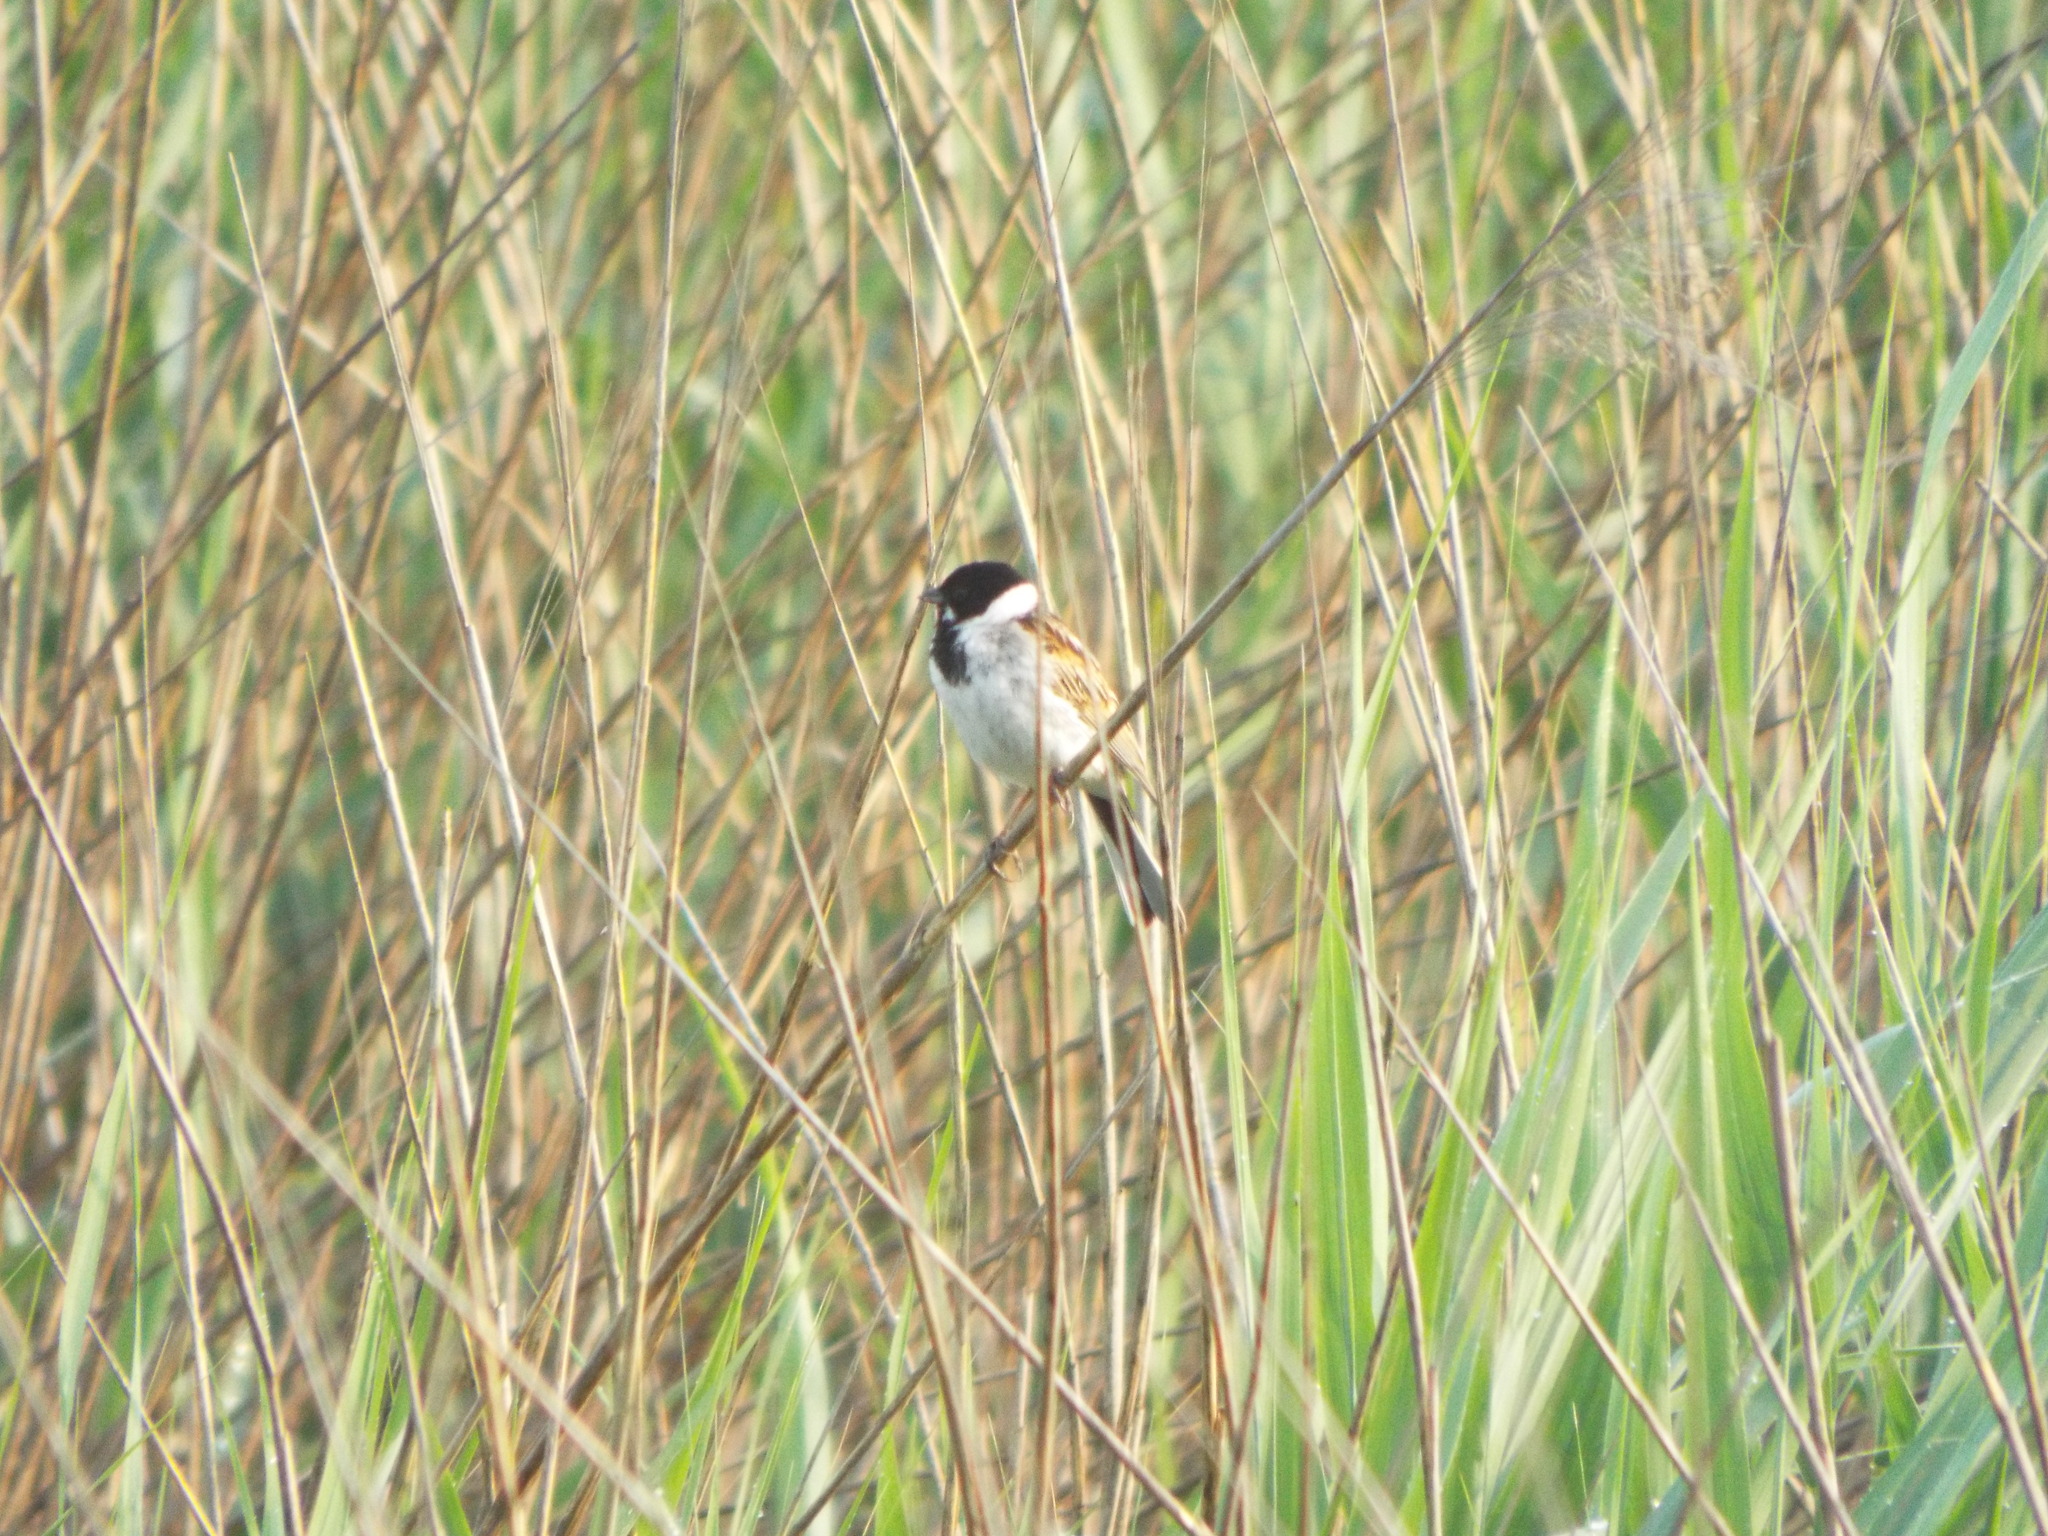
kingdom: Animalia
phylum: Chordata
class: Aves
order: Passeriformes
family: Emberizidae
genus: Emberiza
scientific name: Emberiza schoeniclus
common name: Reed bunting
